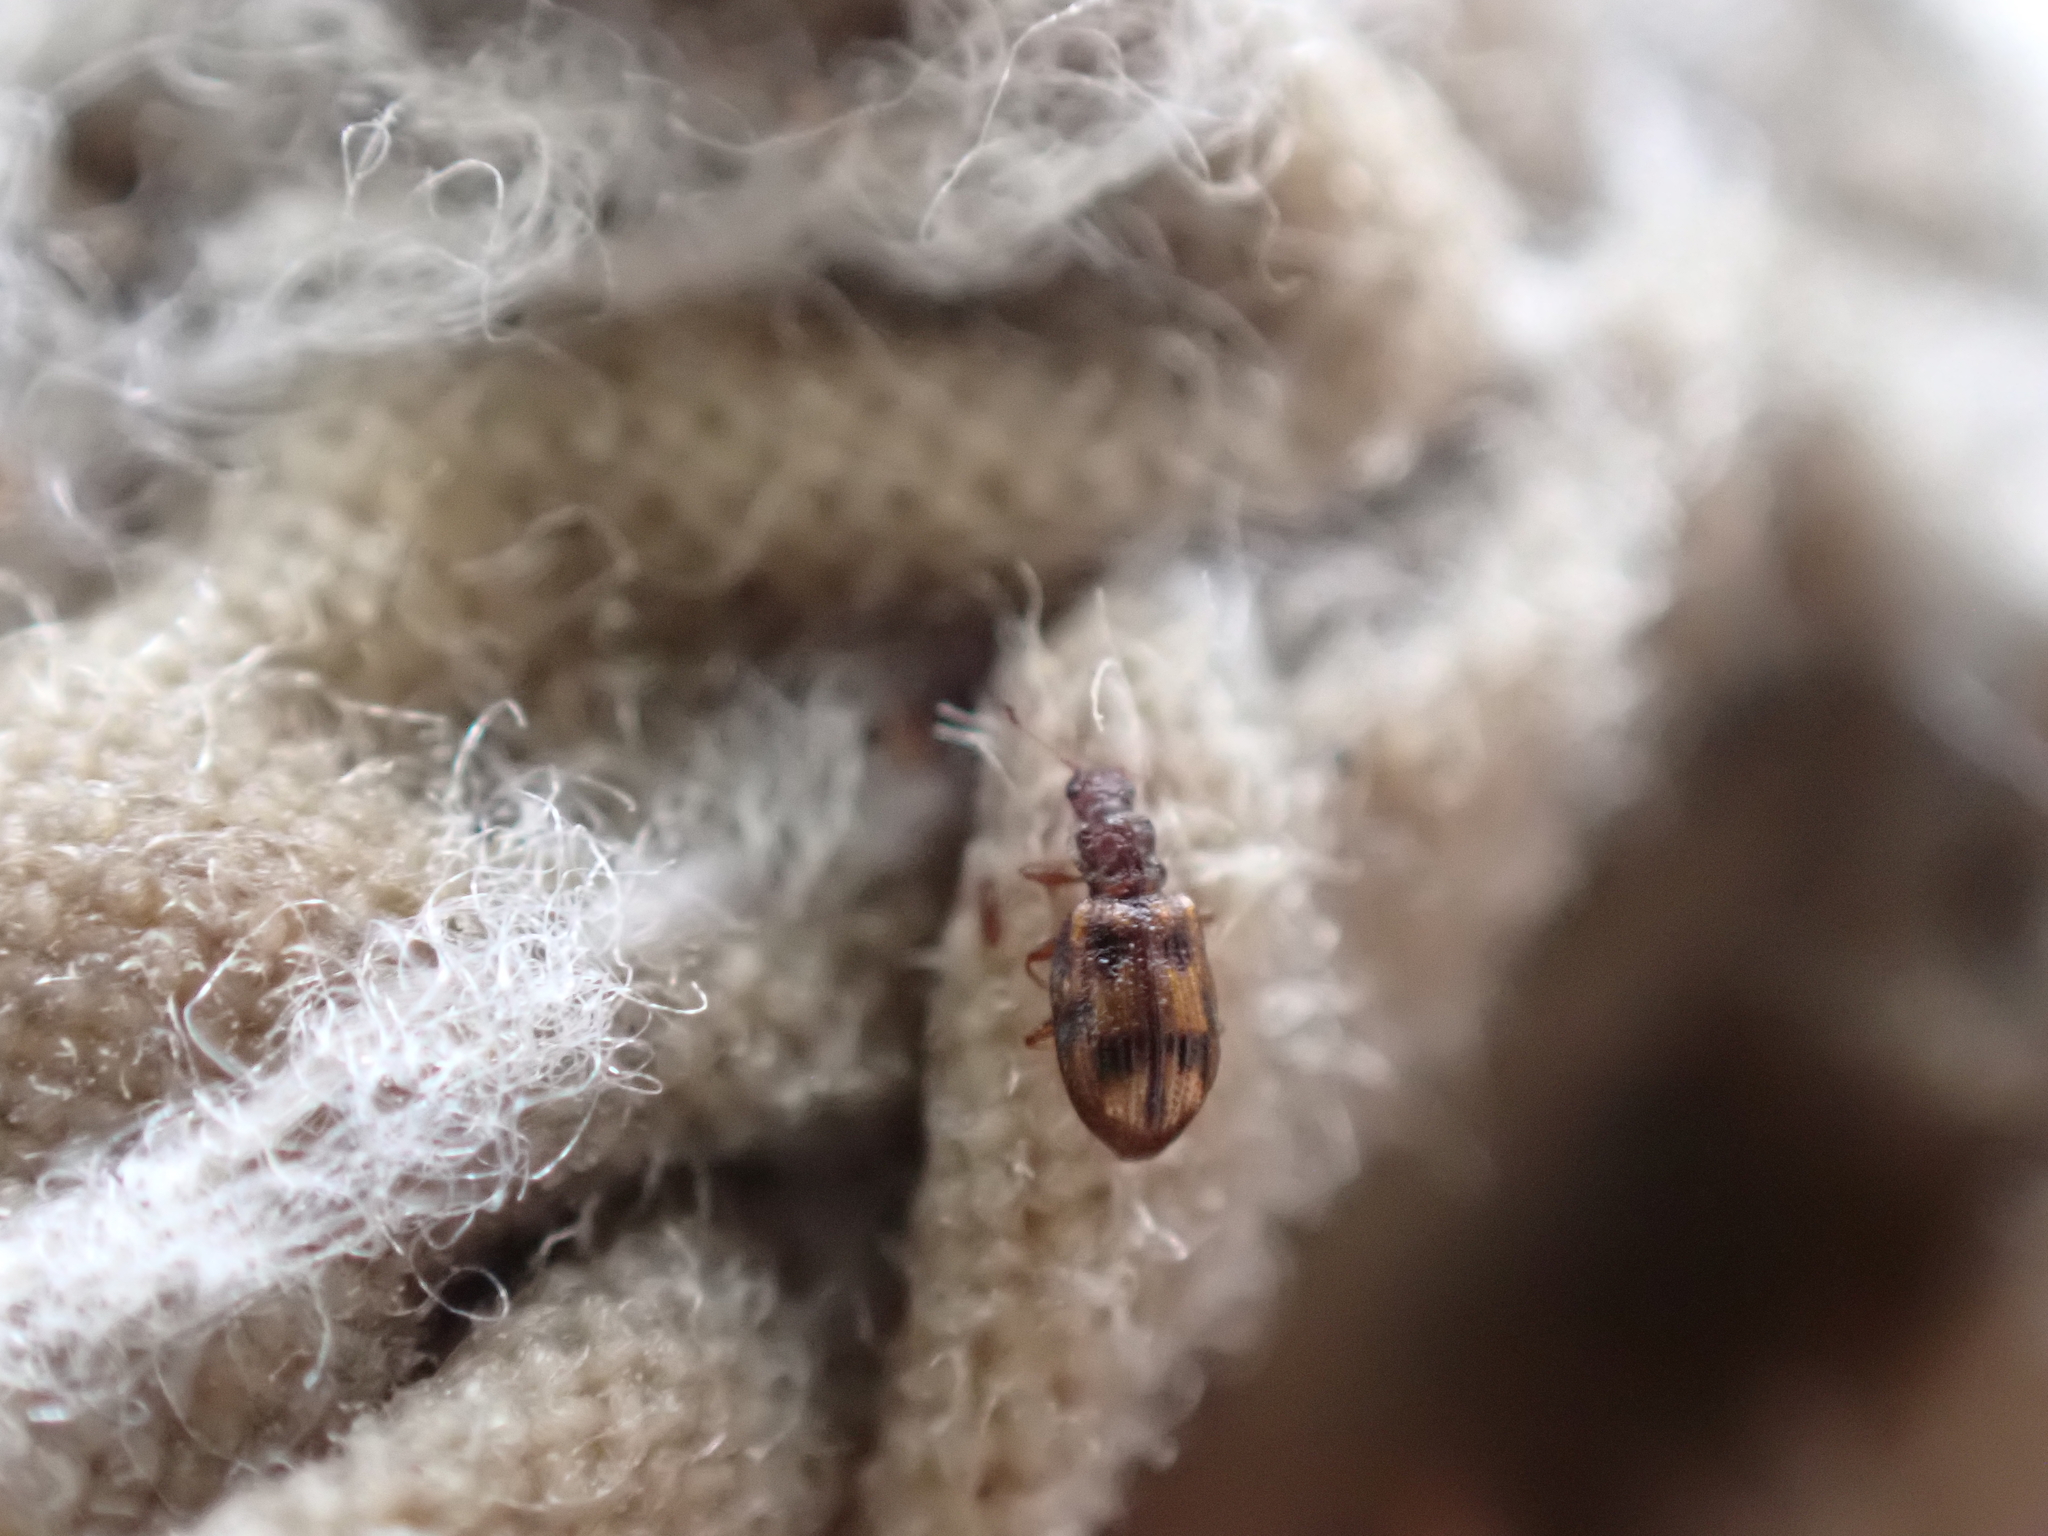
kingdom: Animalia
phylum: Arthropoda
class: Insecta
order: Coleoptera
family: Latridiidae
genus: Cartodere
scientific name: Cartodere bifasciata
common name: Plaster beetle
